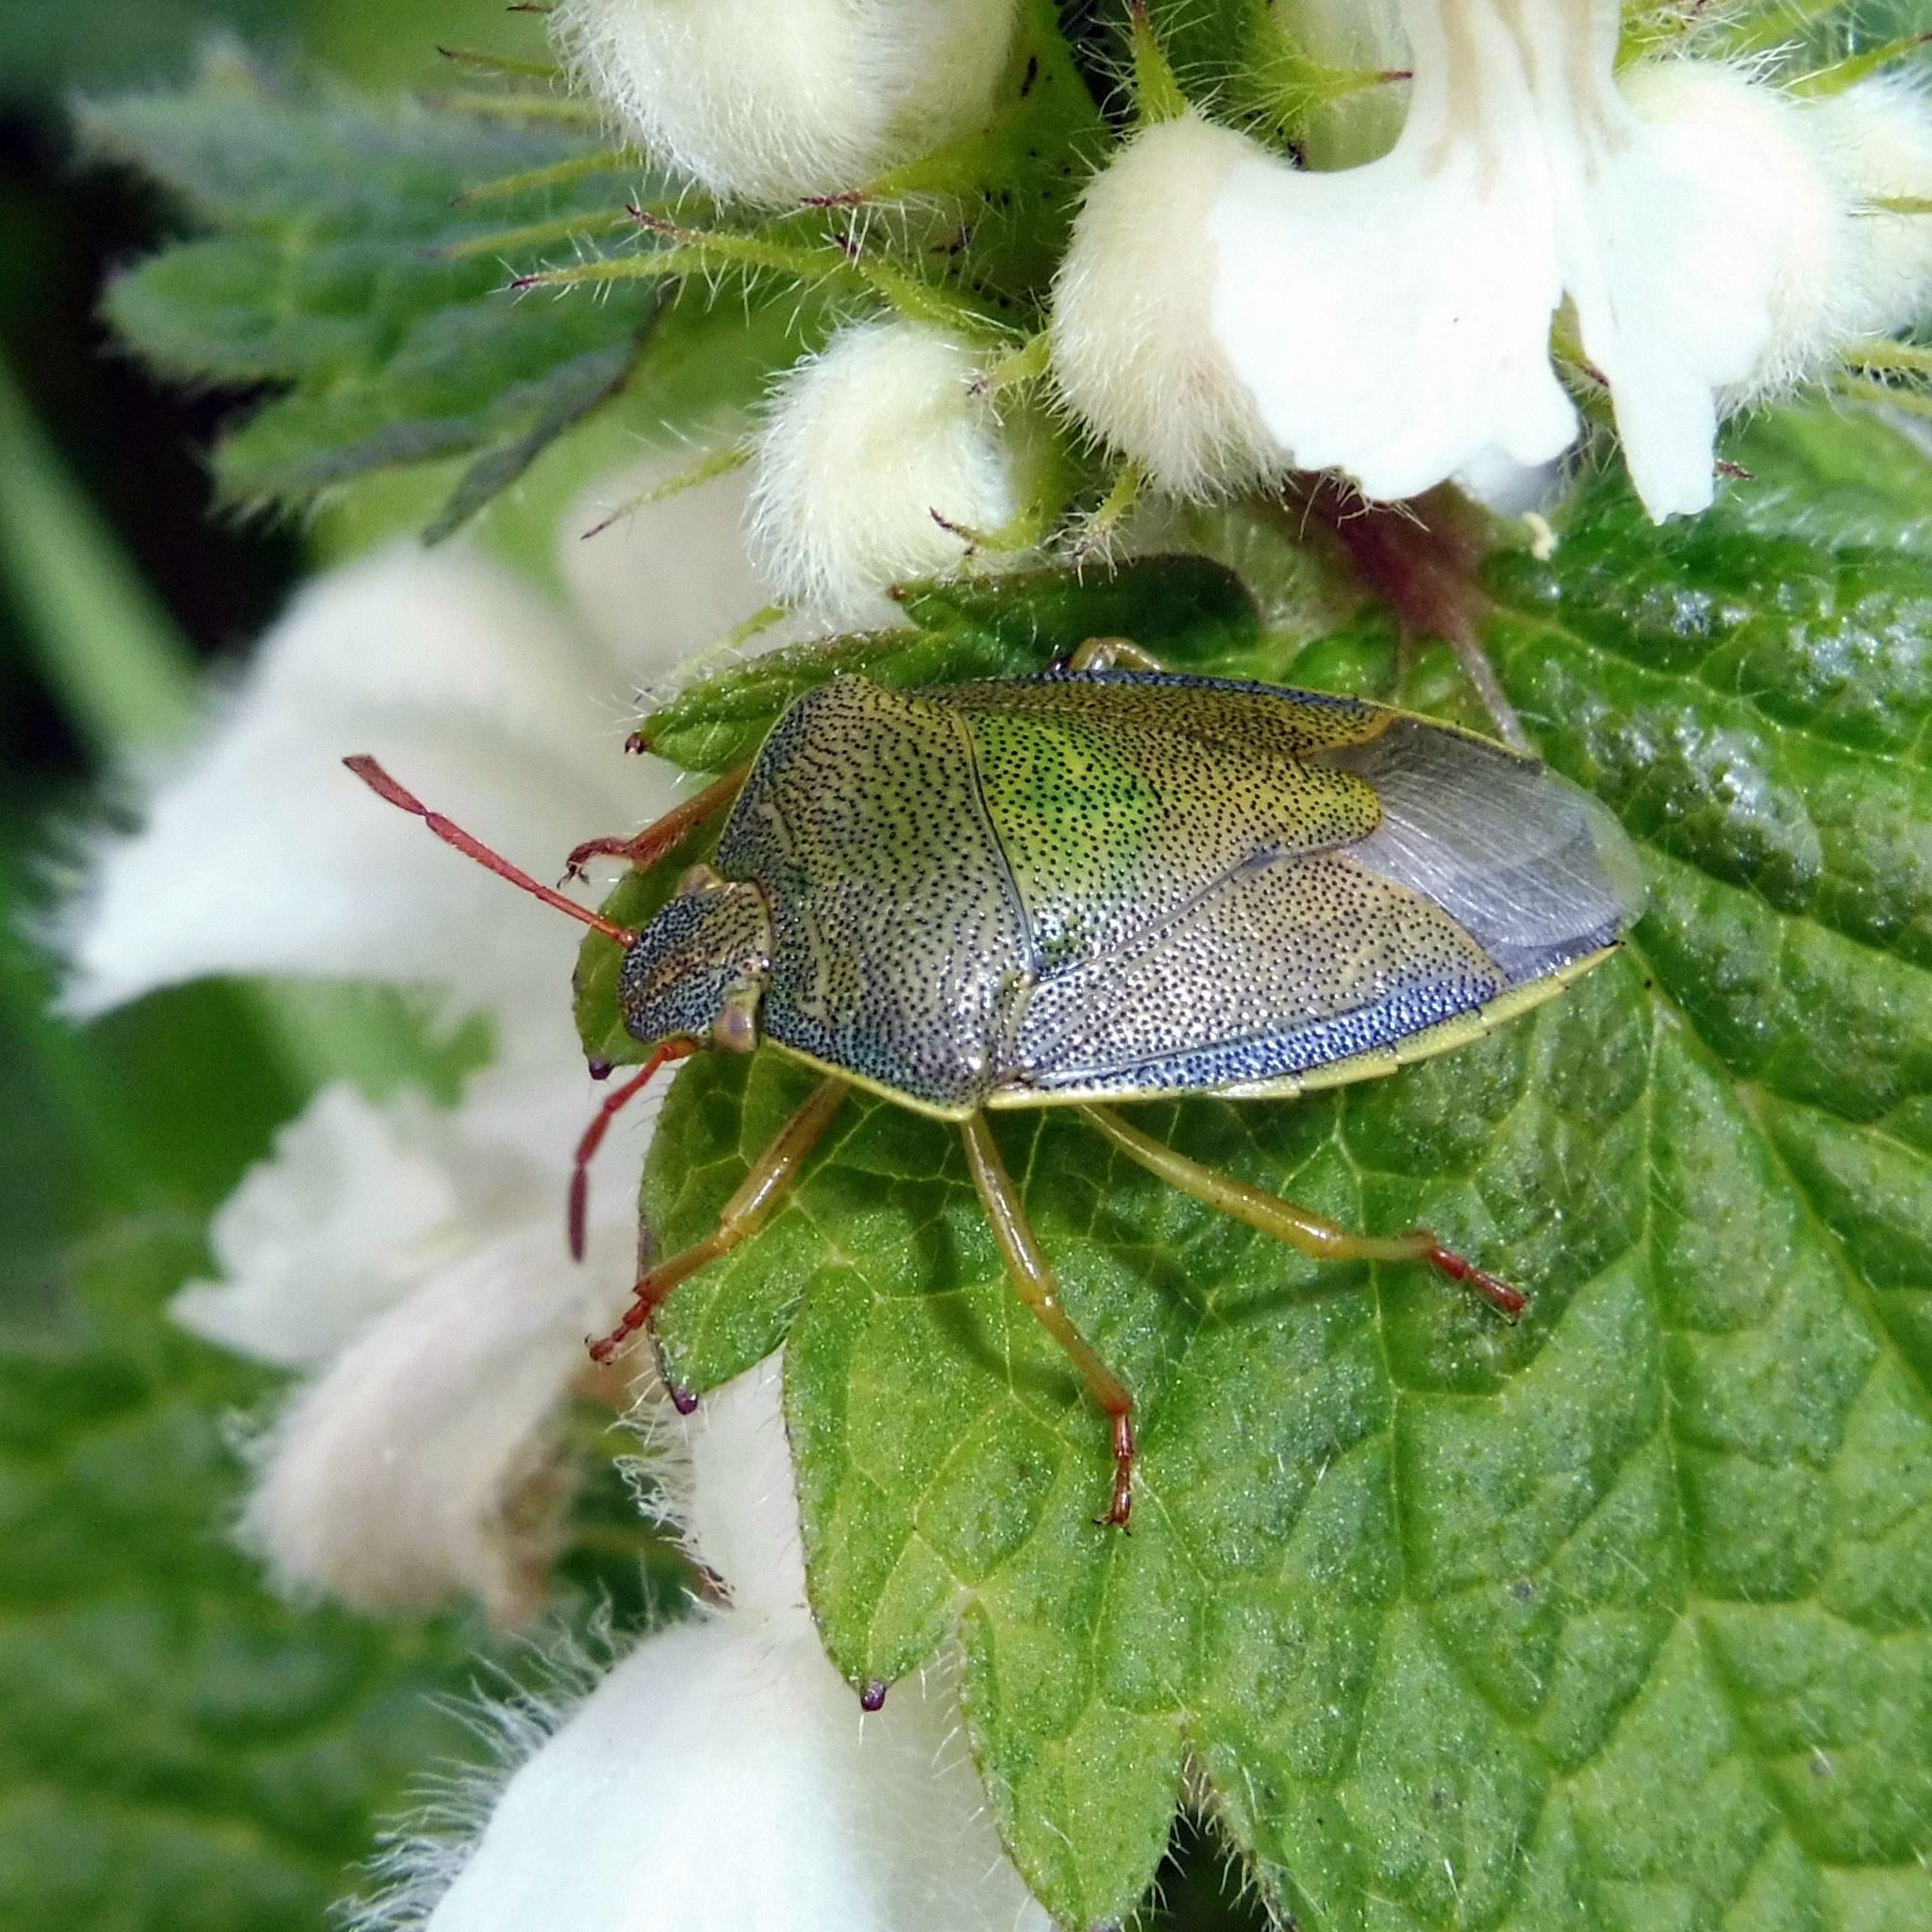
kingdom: Animalia
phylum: Arthropoda
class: Insecta
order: Hemiptera
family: Pentatomidae
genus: Piezodorus
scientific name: Piezodorus lituratus
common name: Stink bug
